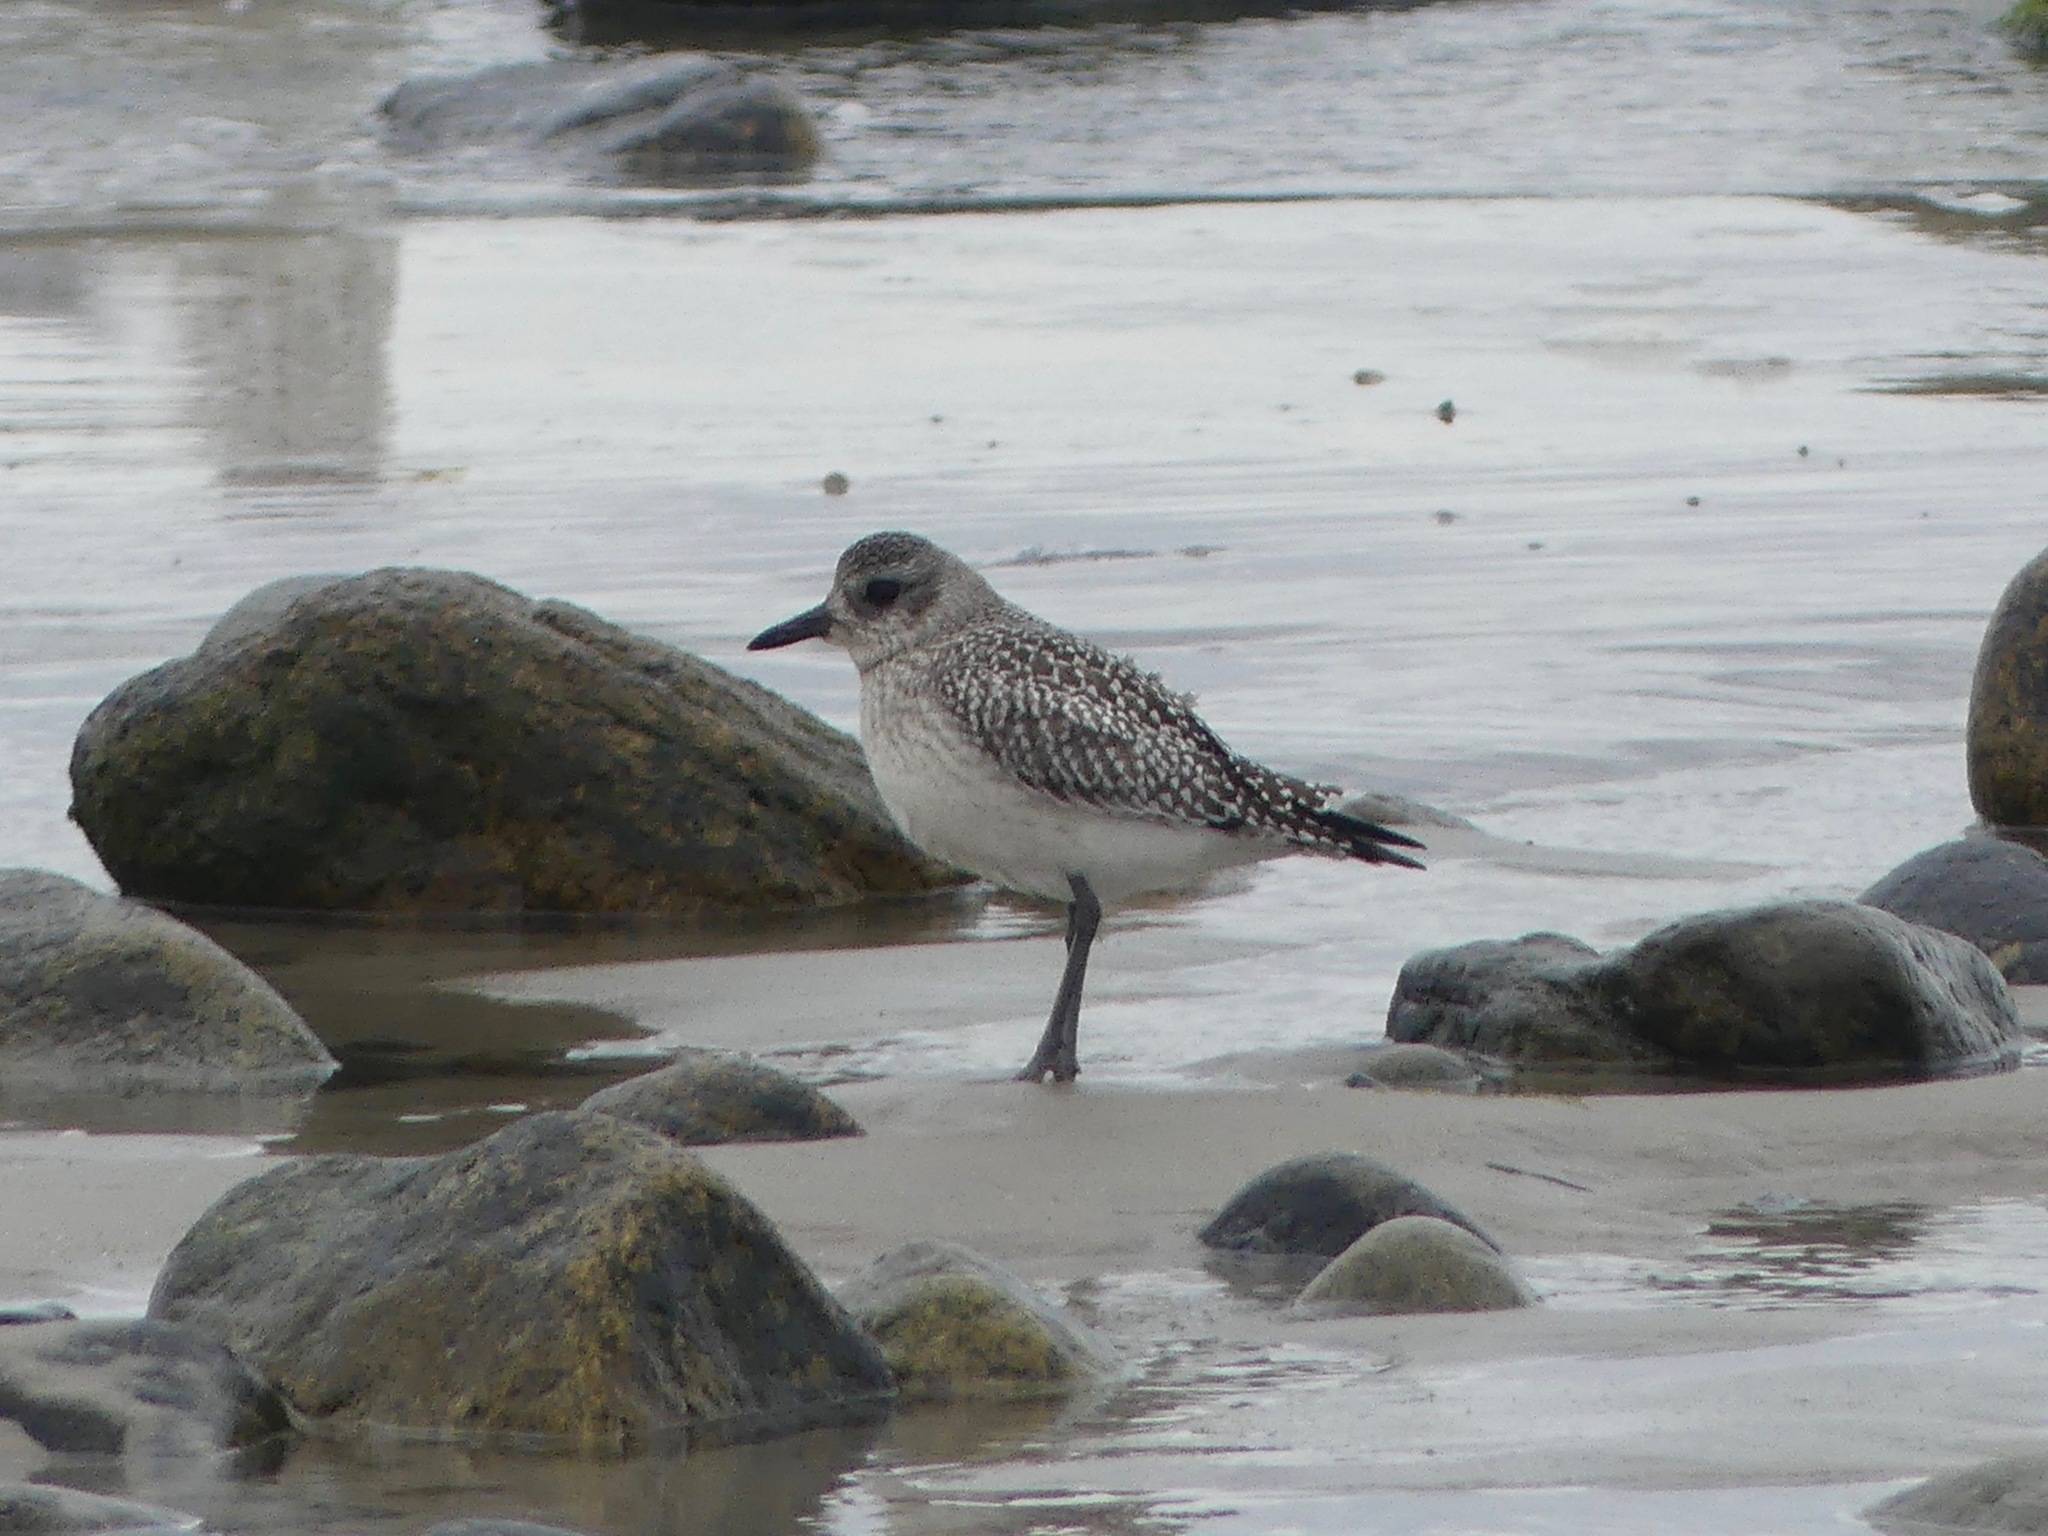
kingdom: Animalia
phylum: Chordata
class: Aves
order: Charadriiformes
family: Charadriidae
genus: Pluvialis
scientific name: Pluvialis squatarola
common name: Grey plover
